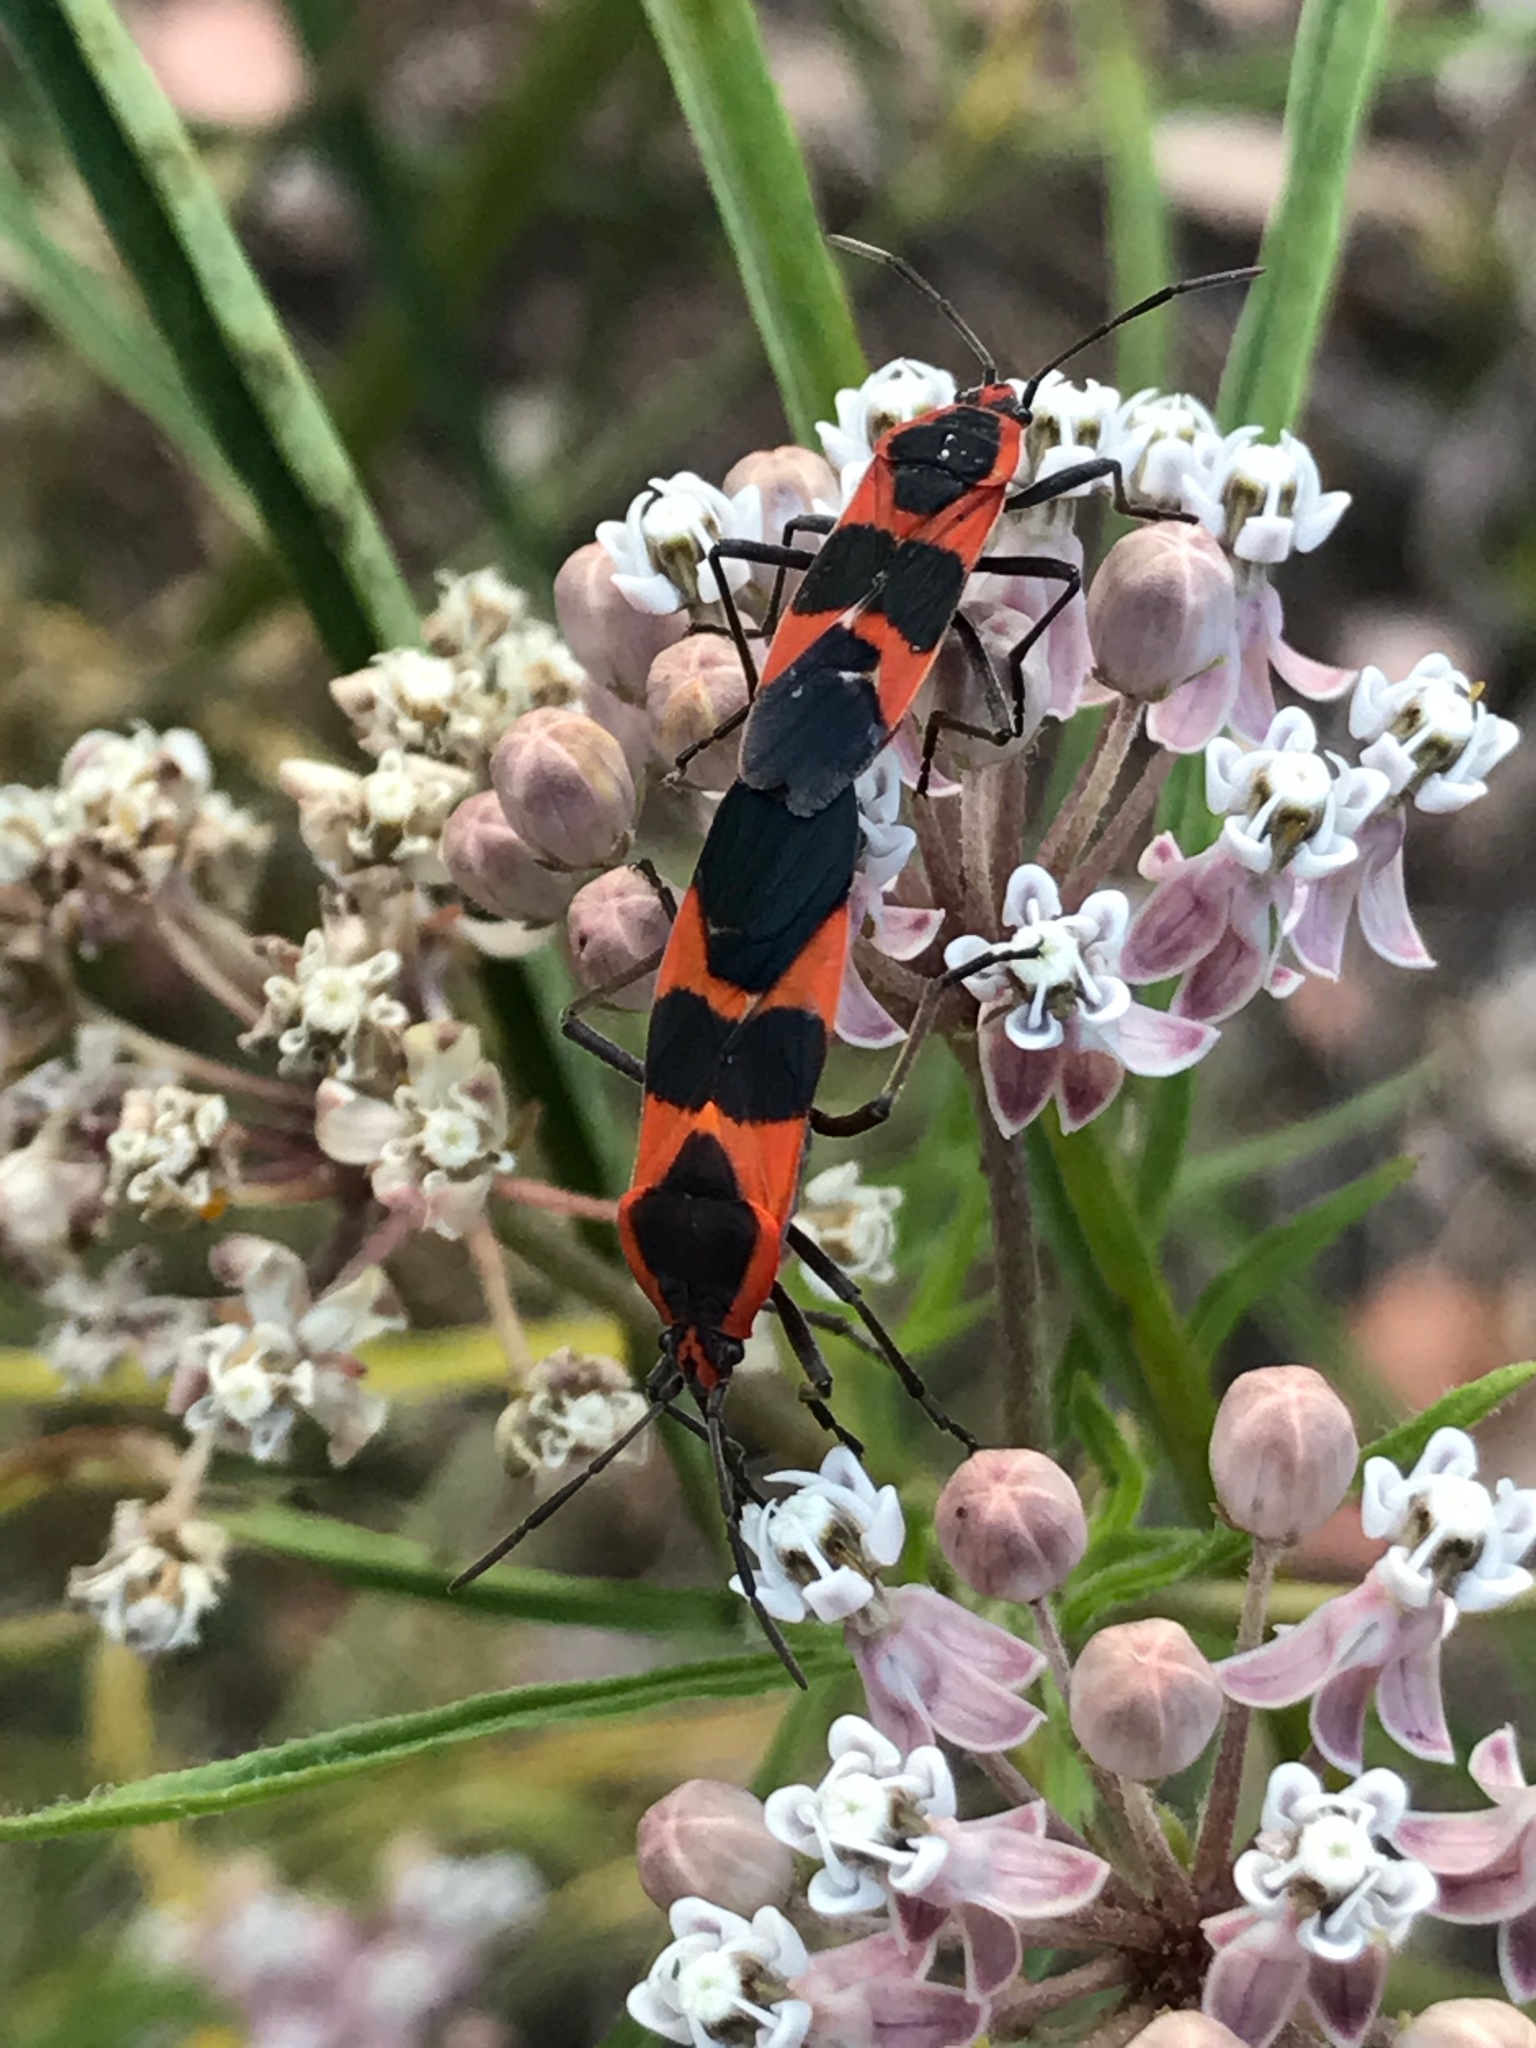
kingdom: Animalia
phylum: Arthropoda
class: Insecta
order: Hemiptera
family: Lygaeidae
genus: Oncopeltus
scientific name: Oncopeltus fasciatus
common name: Large milkweed bug
